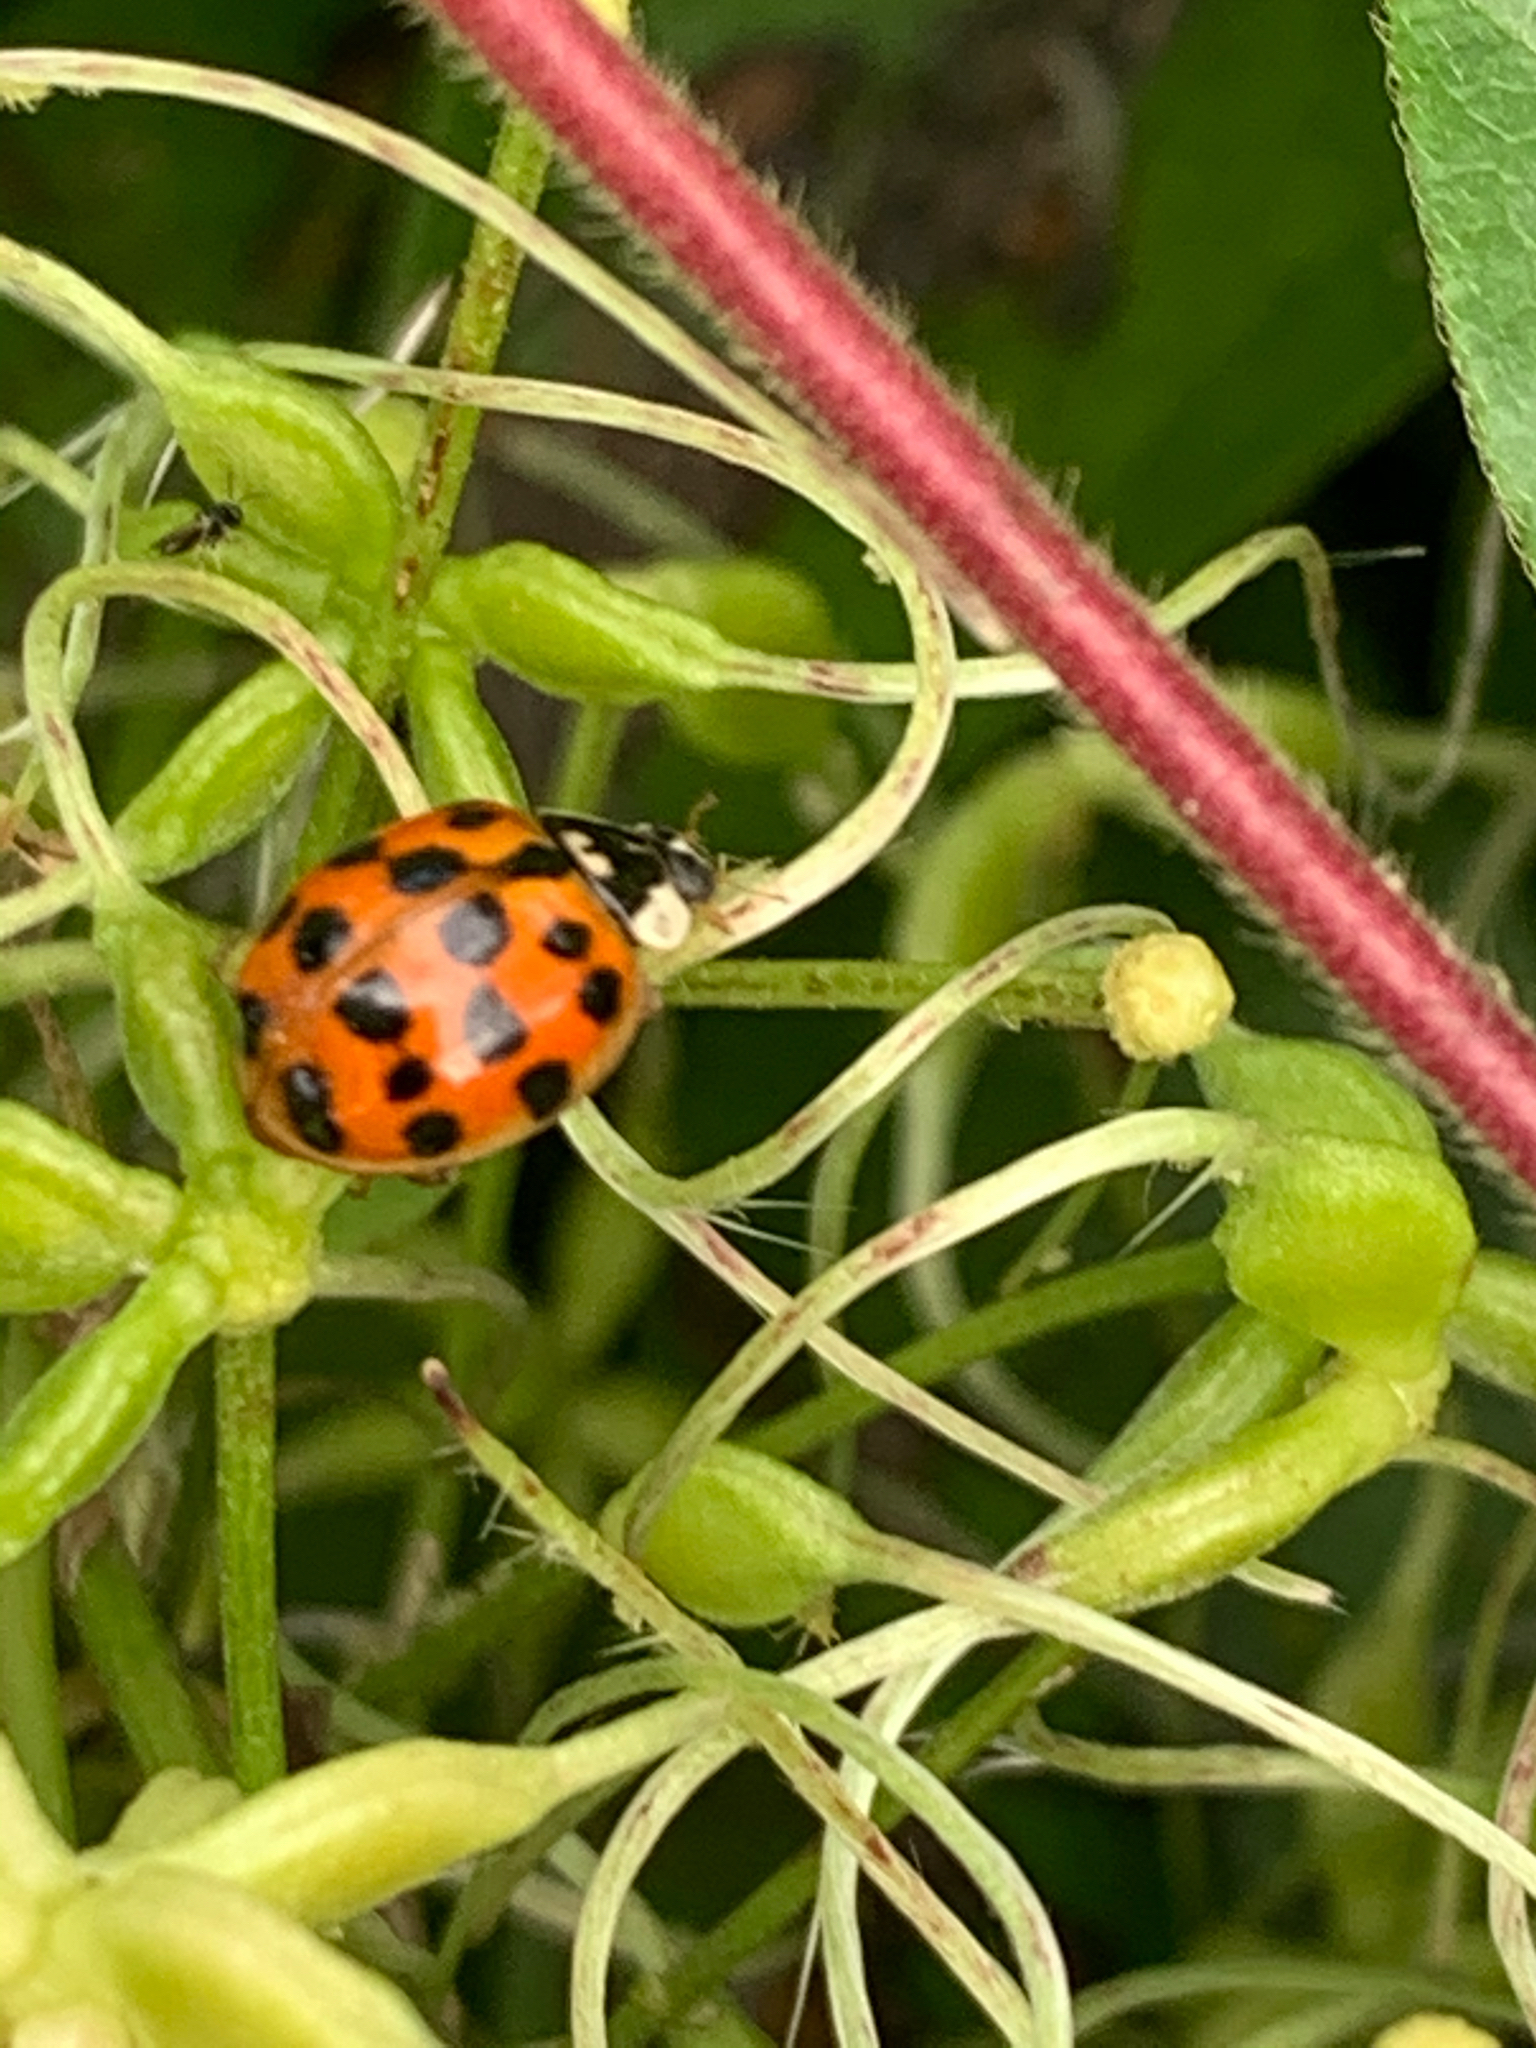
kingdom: Animalia
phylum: Arthropoda
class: Insecta
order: Coleoptera
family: Coccinellidae
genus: Harmonia
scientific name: Harmonia axyridis
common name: Harlequin ladybird
